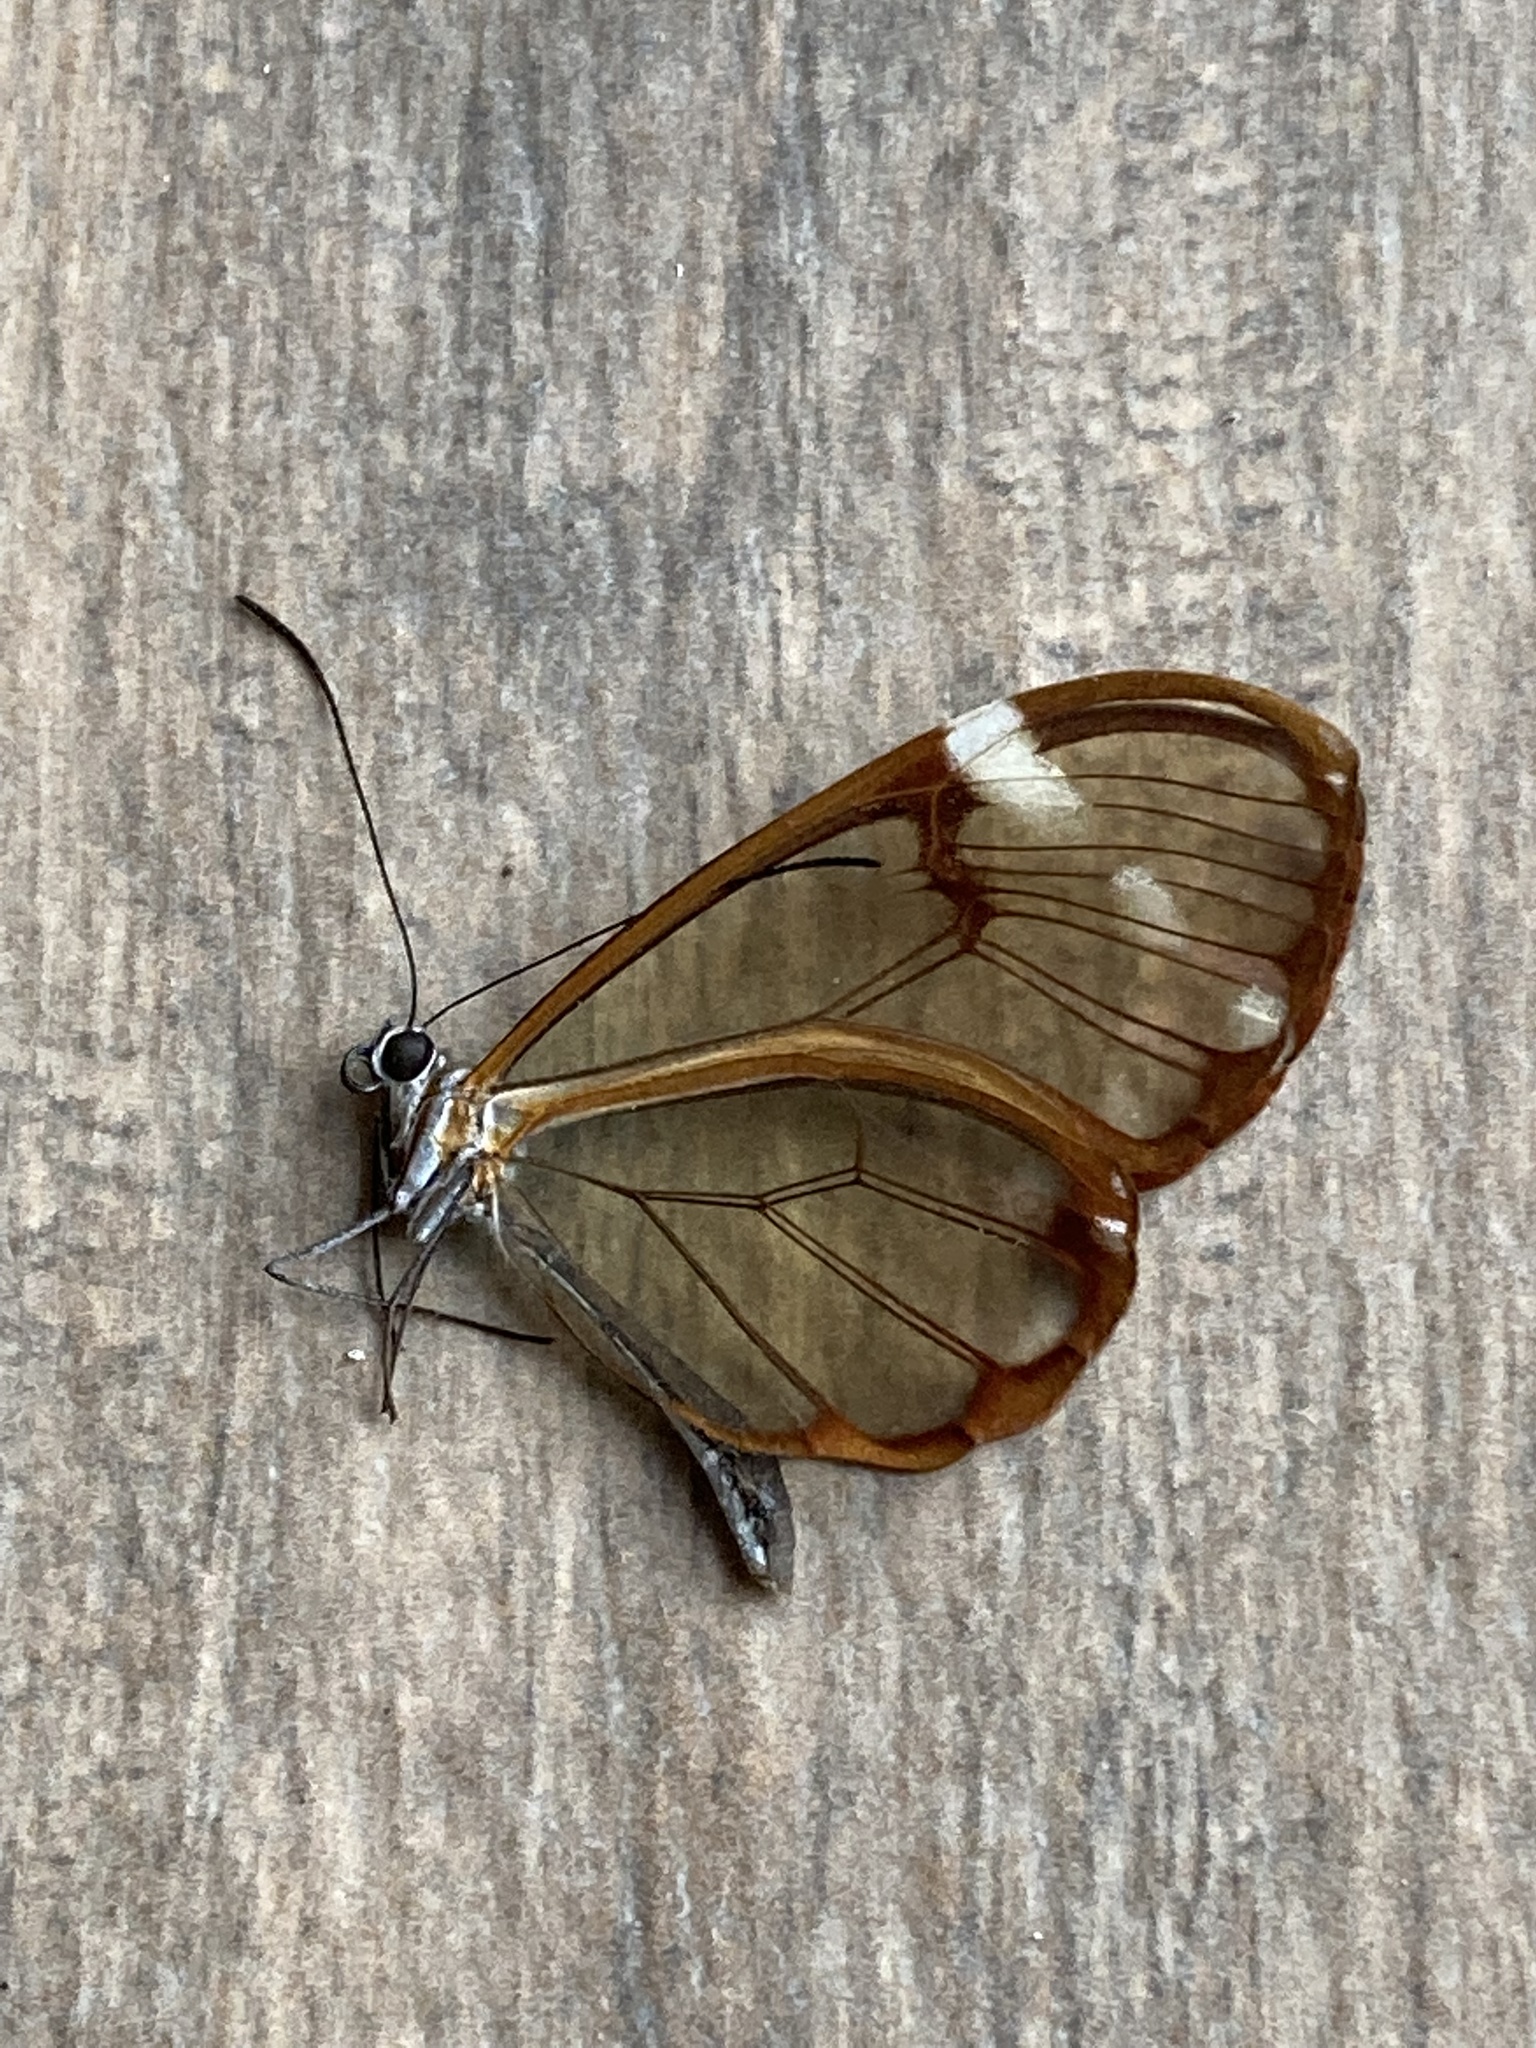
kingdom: Animalia
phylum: Arthropoda
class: Insecta
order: Lepidoptera
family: Nymphalidae
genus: Greta
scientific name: Greta annette
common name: White-spotted clearwing
